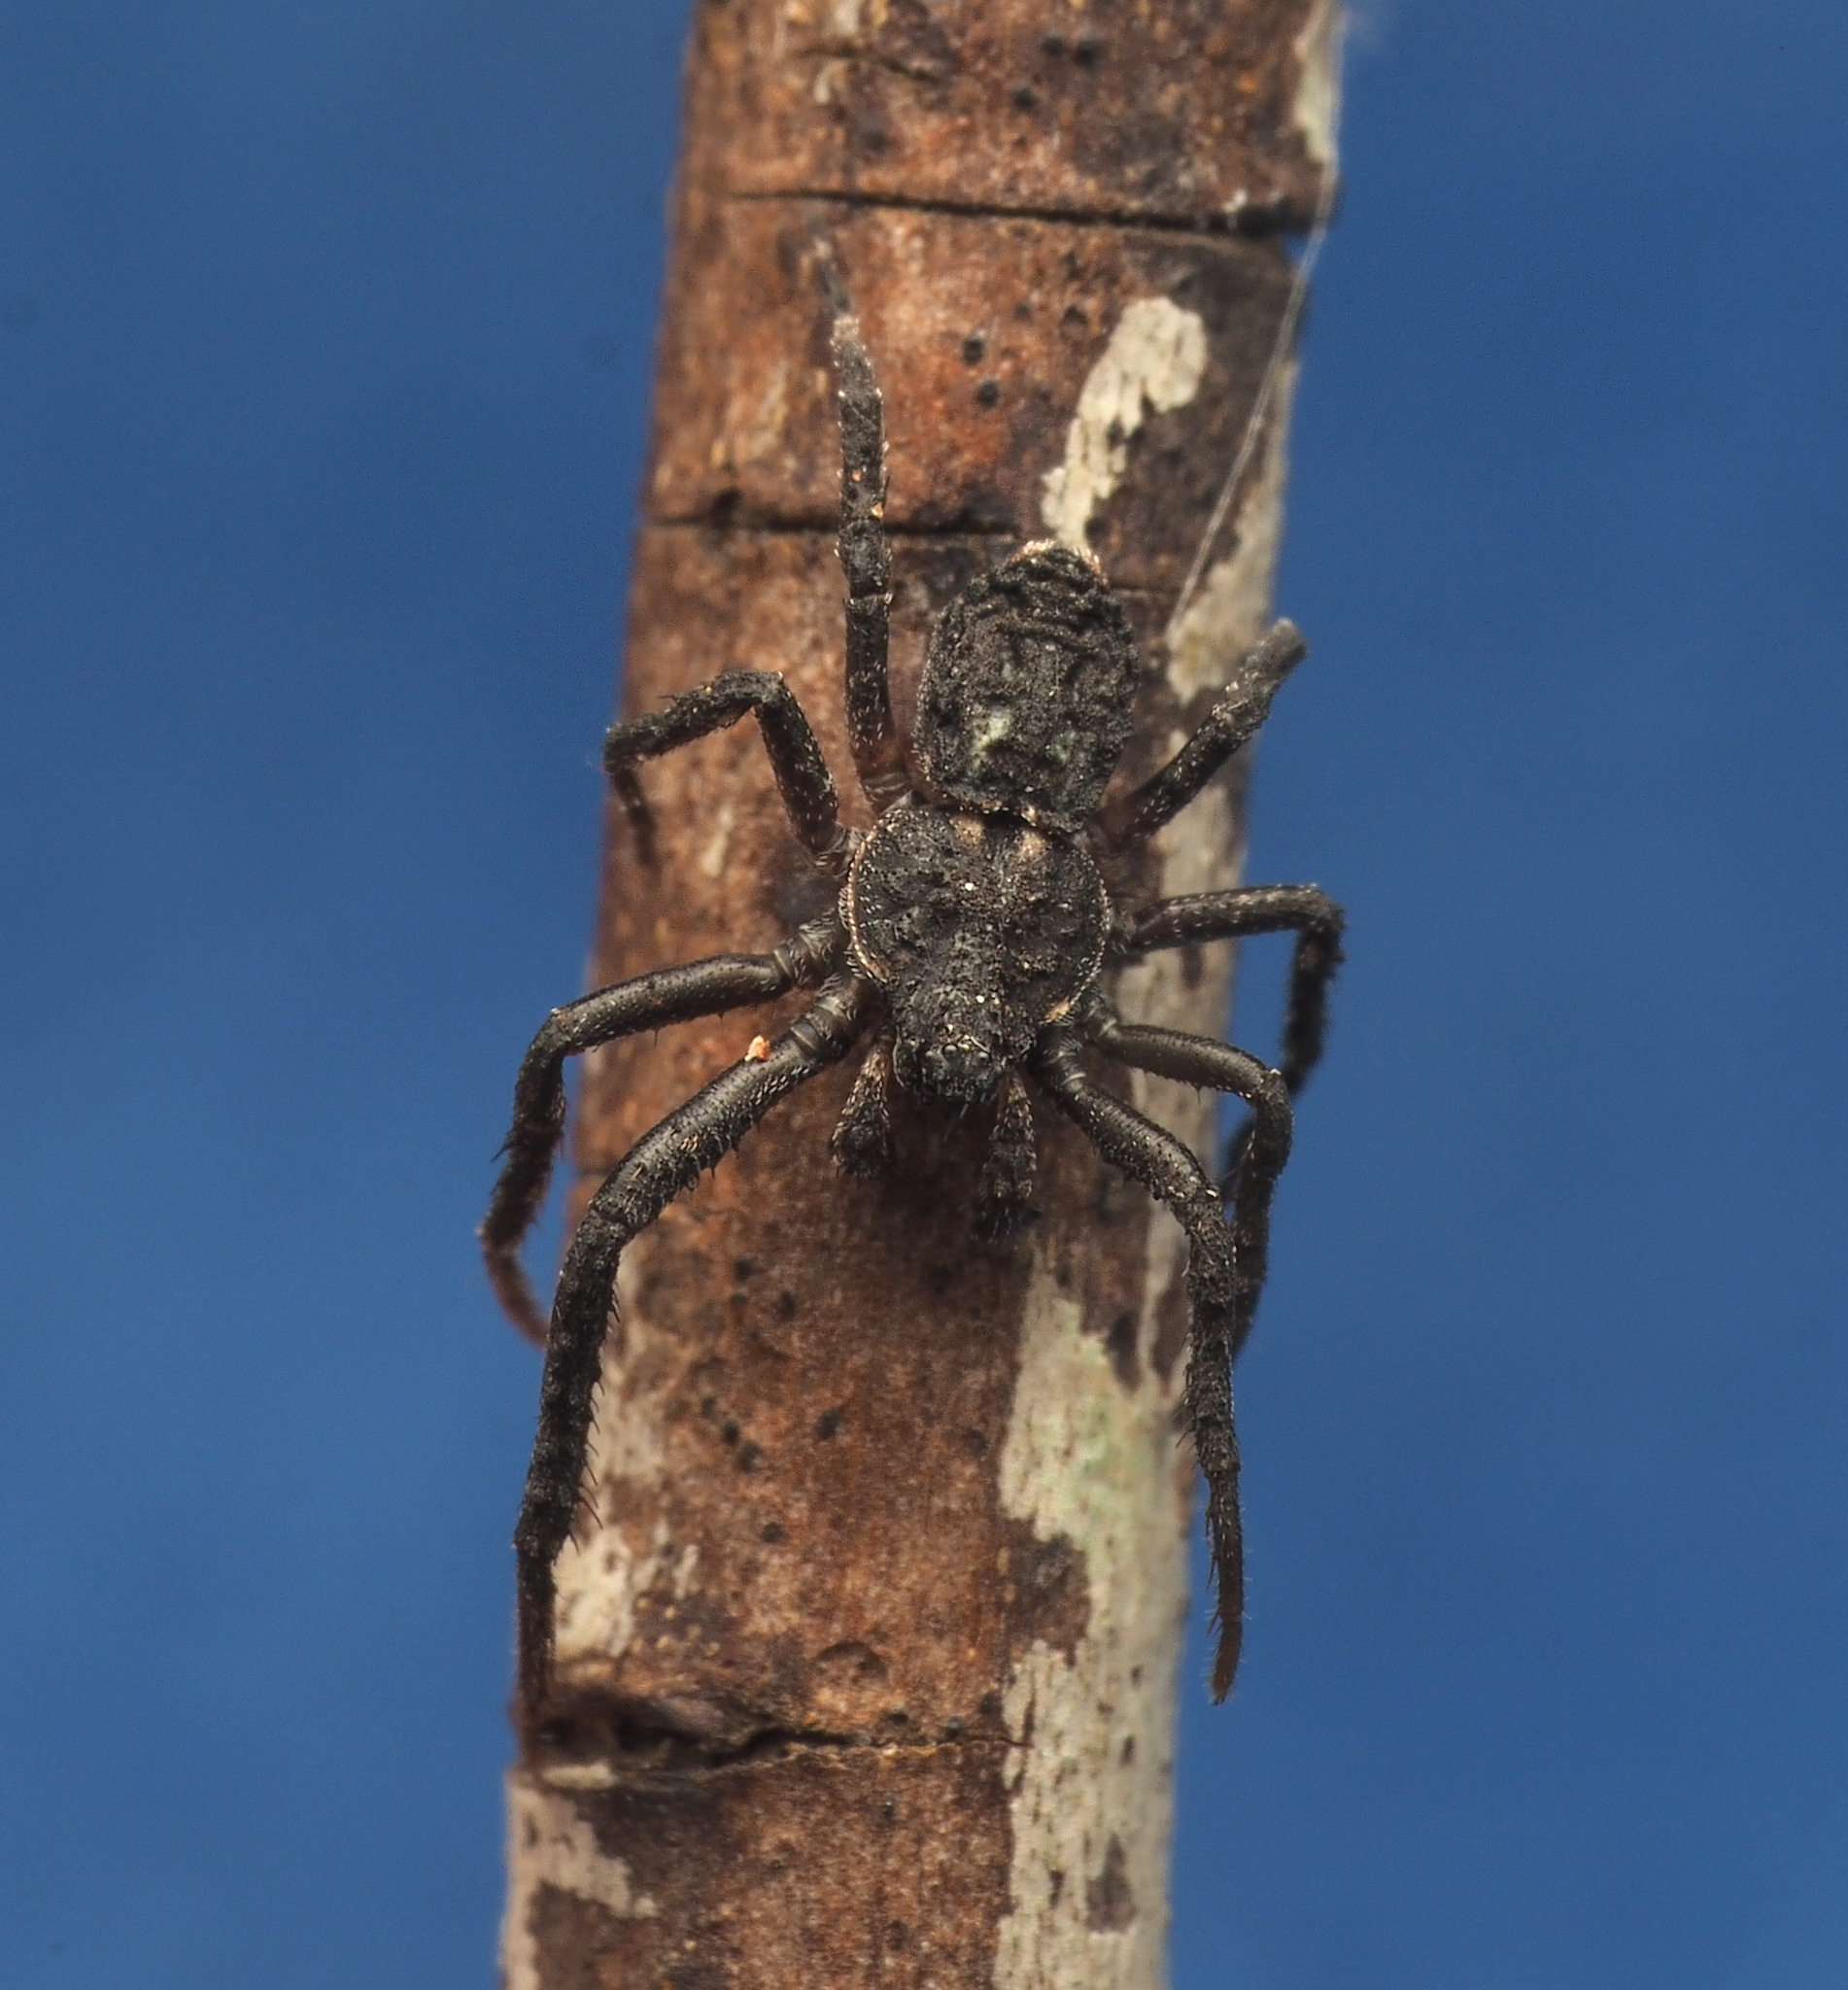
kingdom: Animalia
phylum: Arthropoda
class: Arachnida
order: Araneae
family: Thomisidae
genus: Stephanopis
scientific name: Stephanopis altifrons
